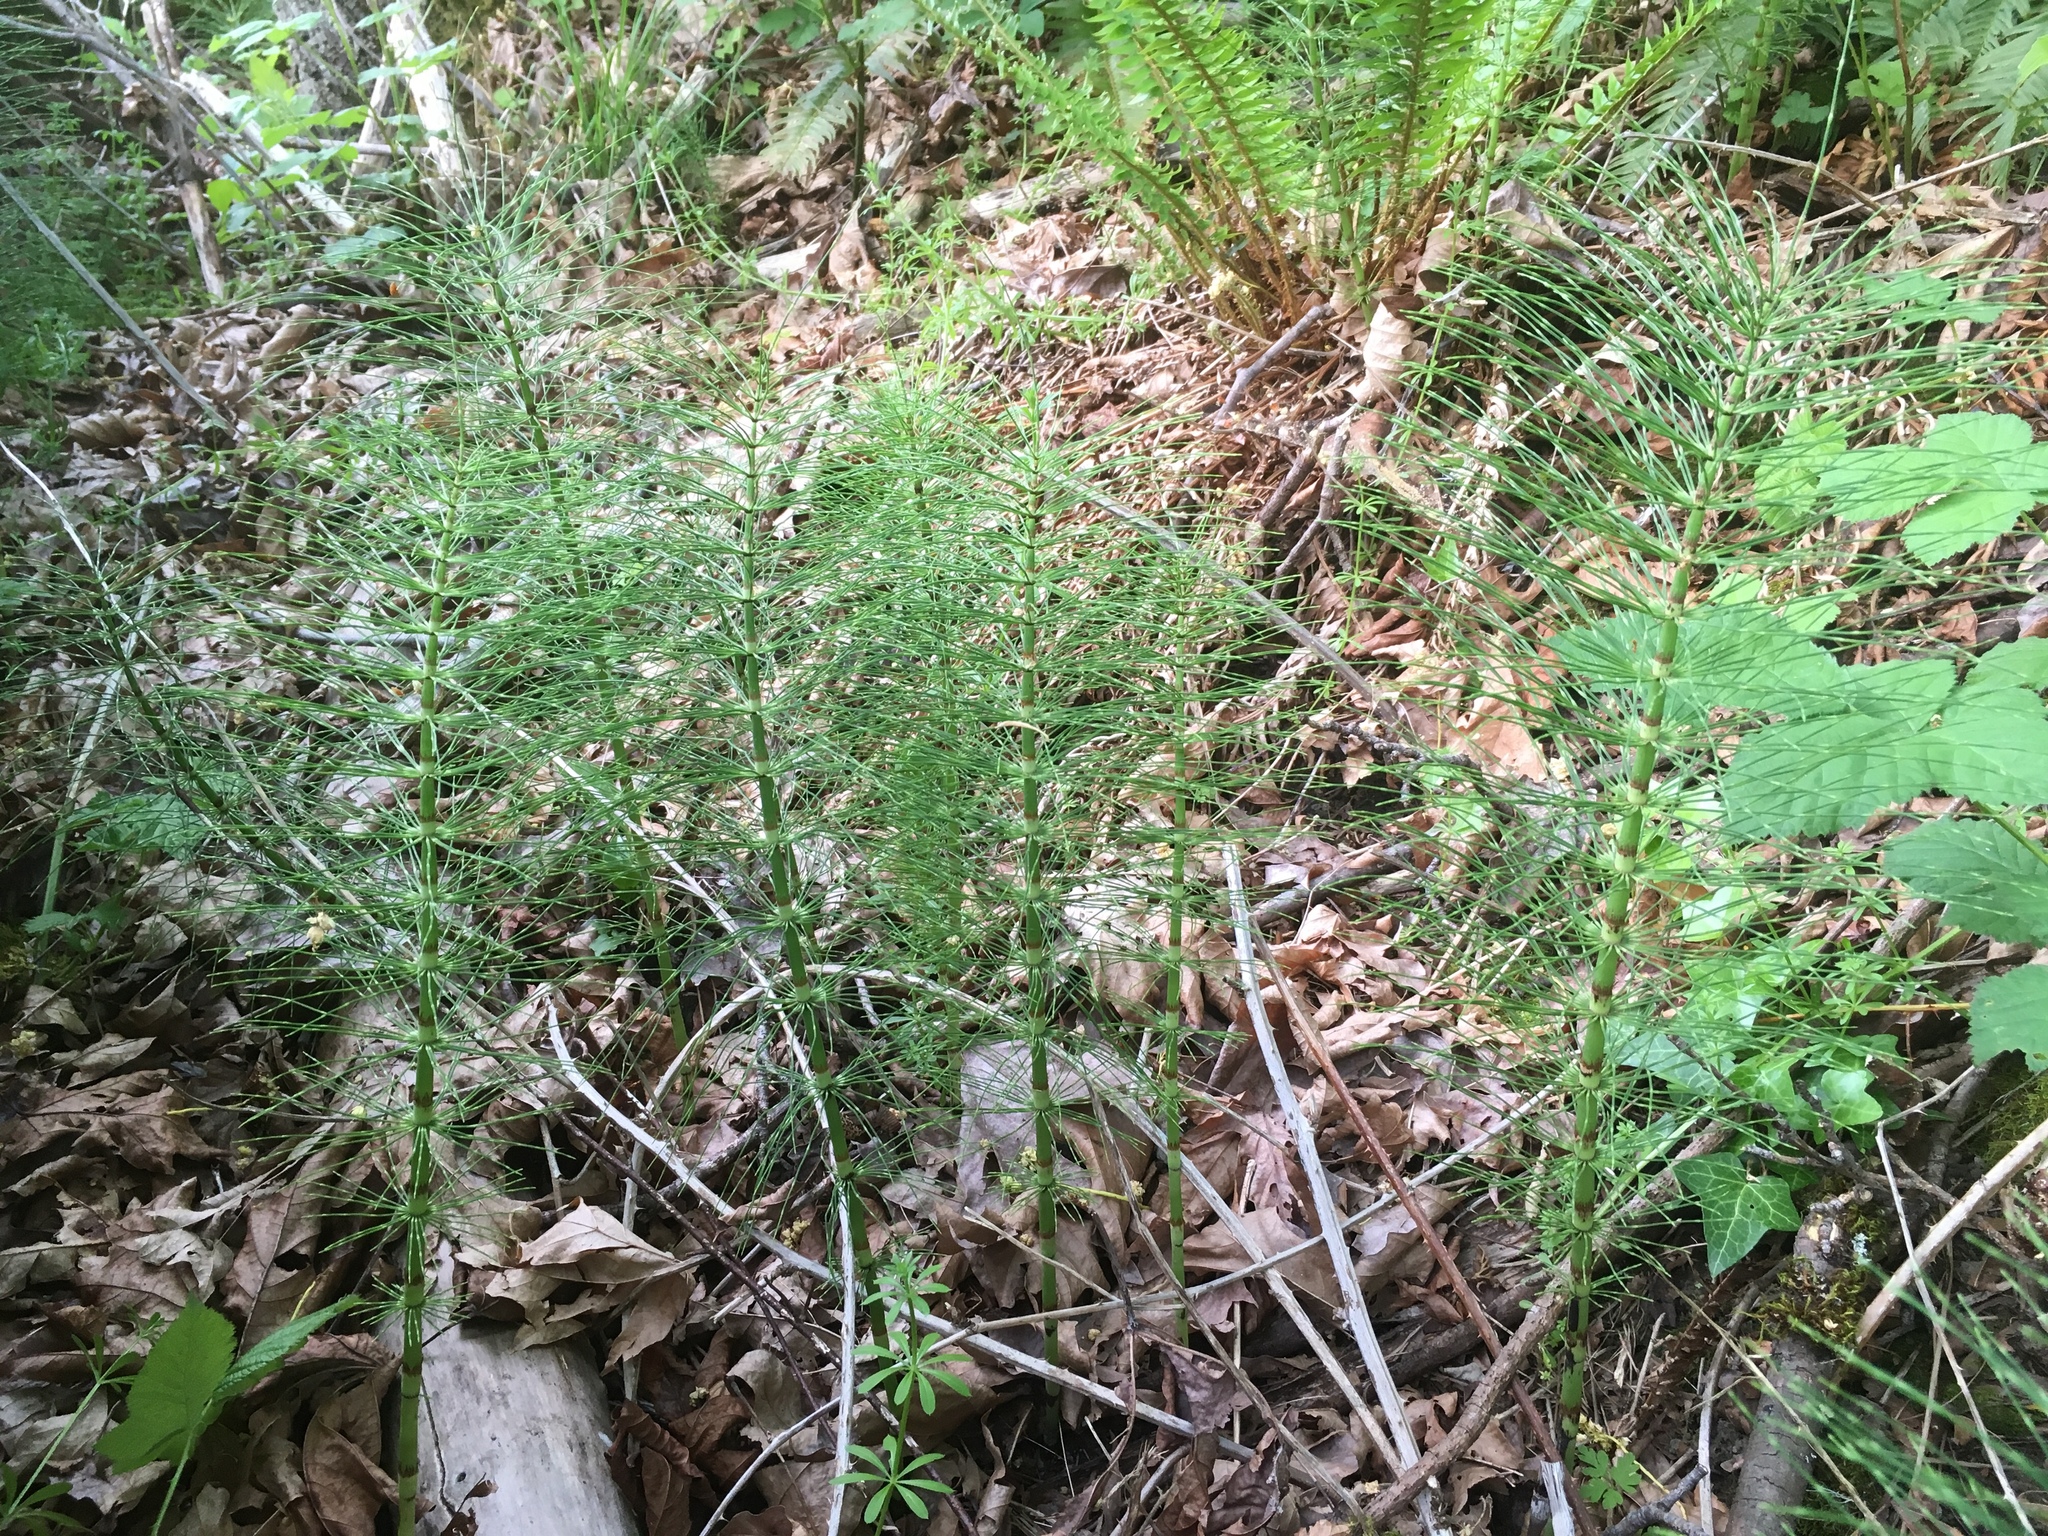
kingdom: Plantae
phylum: Tracheophyta
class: Polypodiopsida
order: Equisetales
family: Equisetaceae
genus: Equisetum
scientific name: Equisetum braunii
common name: Braun's horsetail
